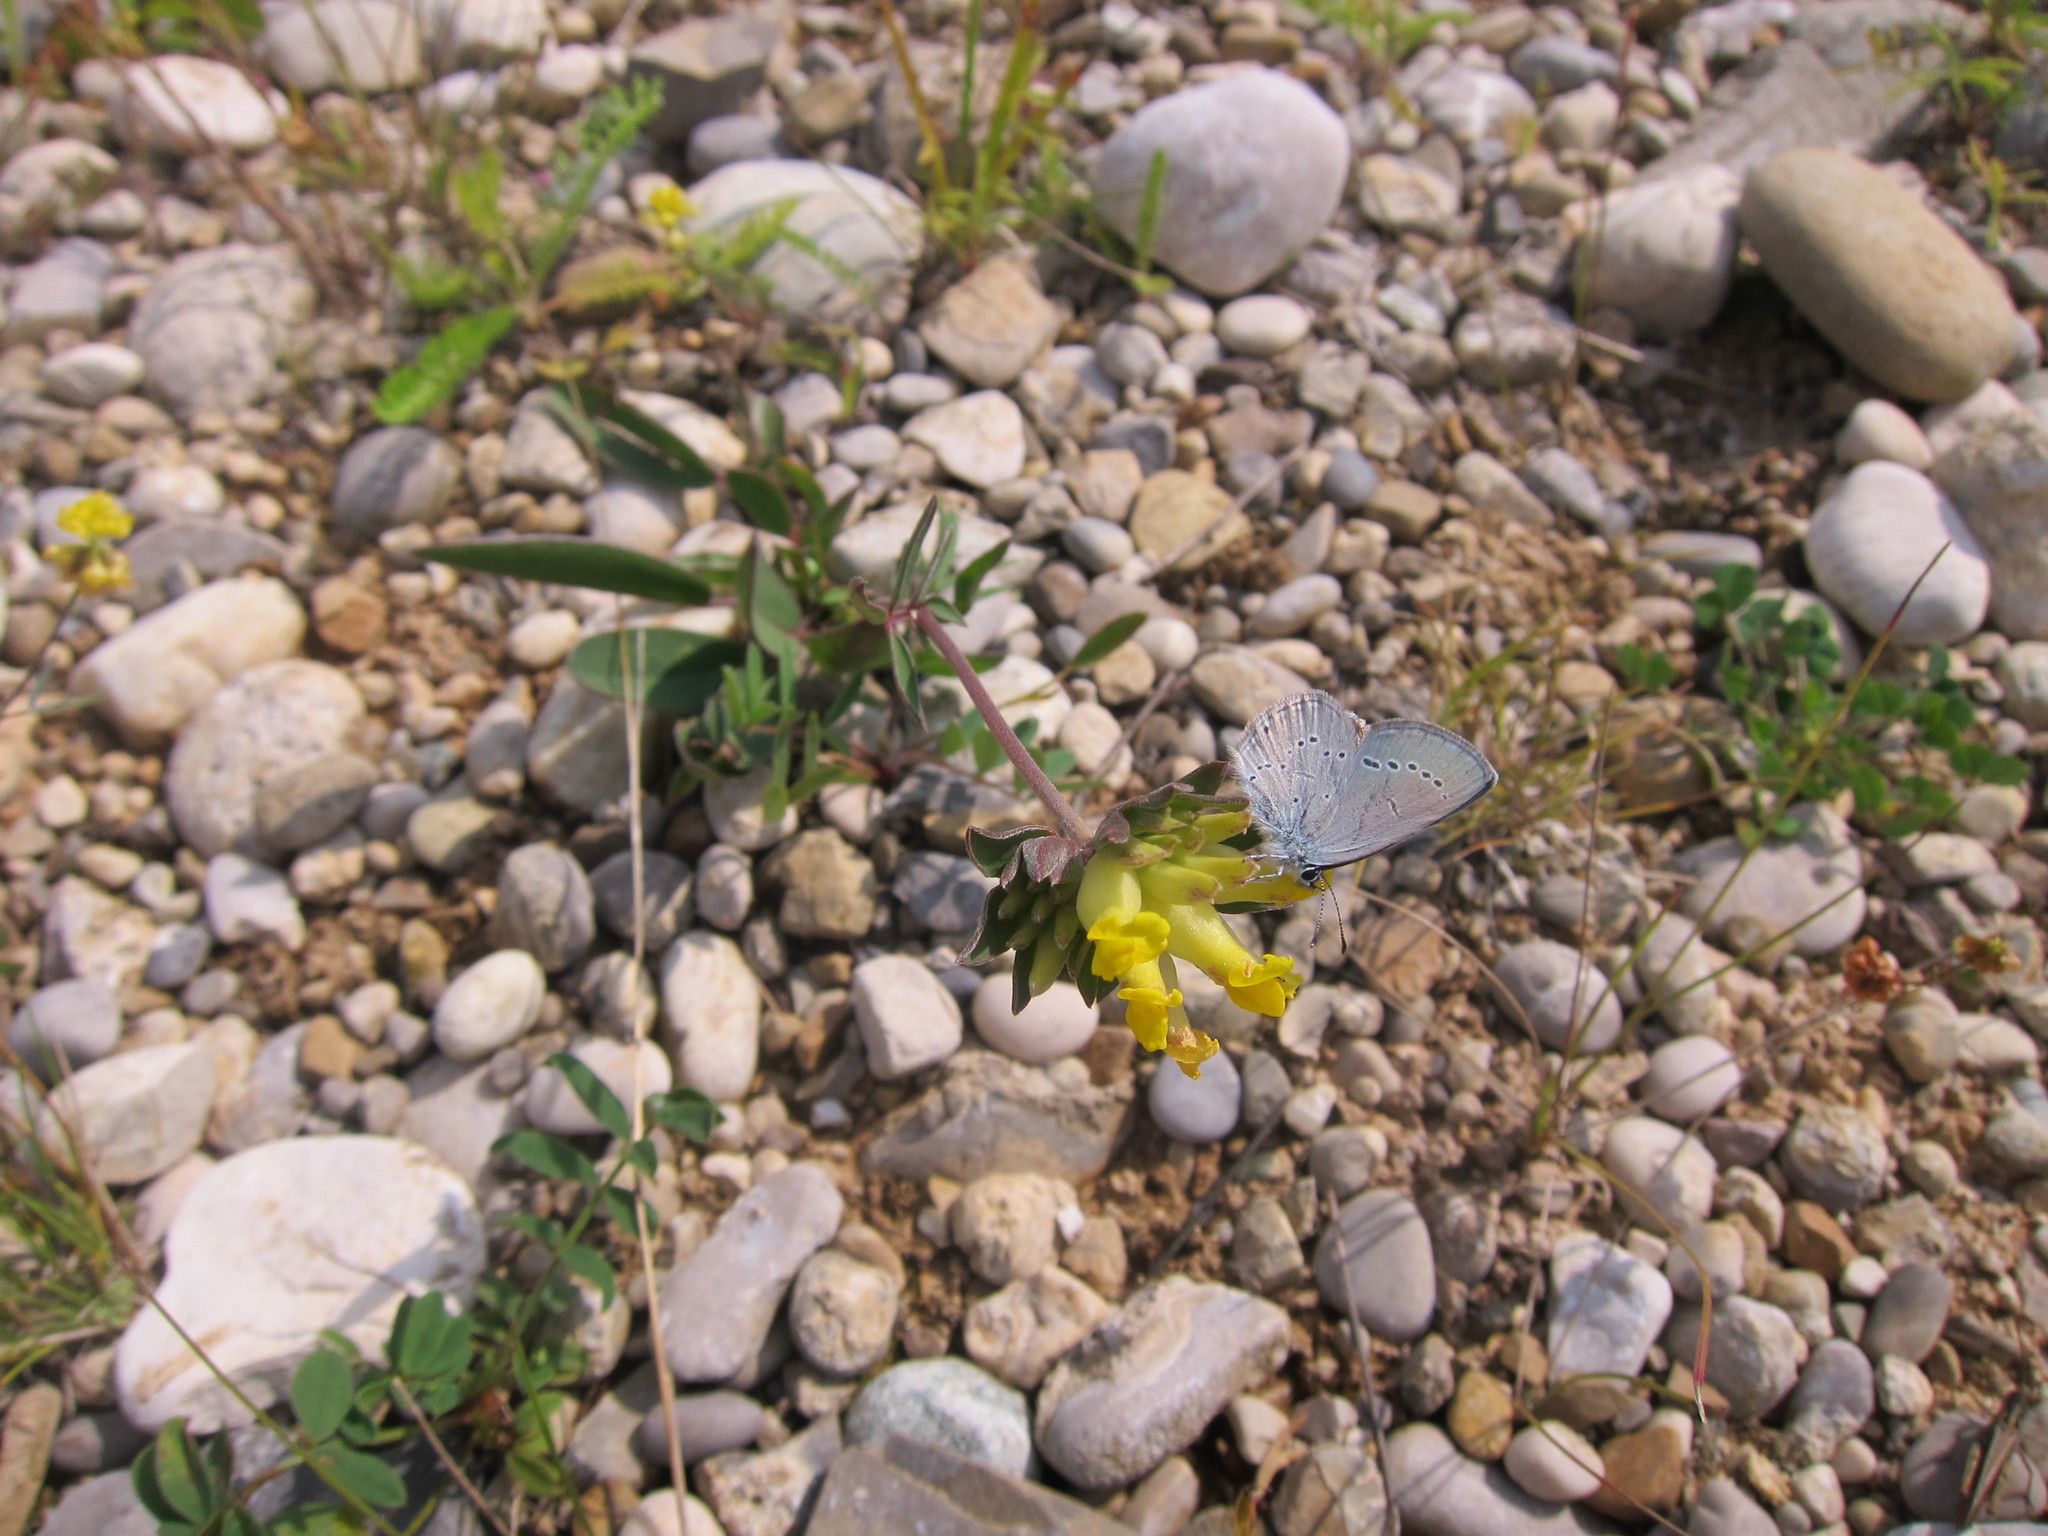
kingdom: Animalia
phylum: Arthropoda
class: Insecta
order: Lepidoptera
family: Lycaenidae
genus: Cupido
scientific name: Cupido minimus
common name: Small blue
